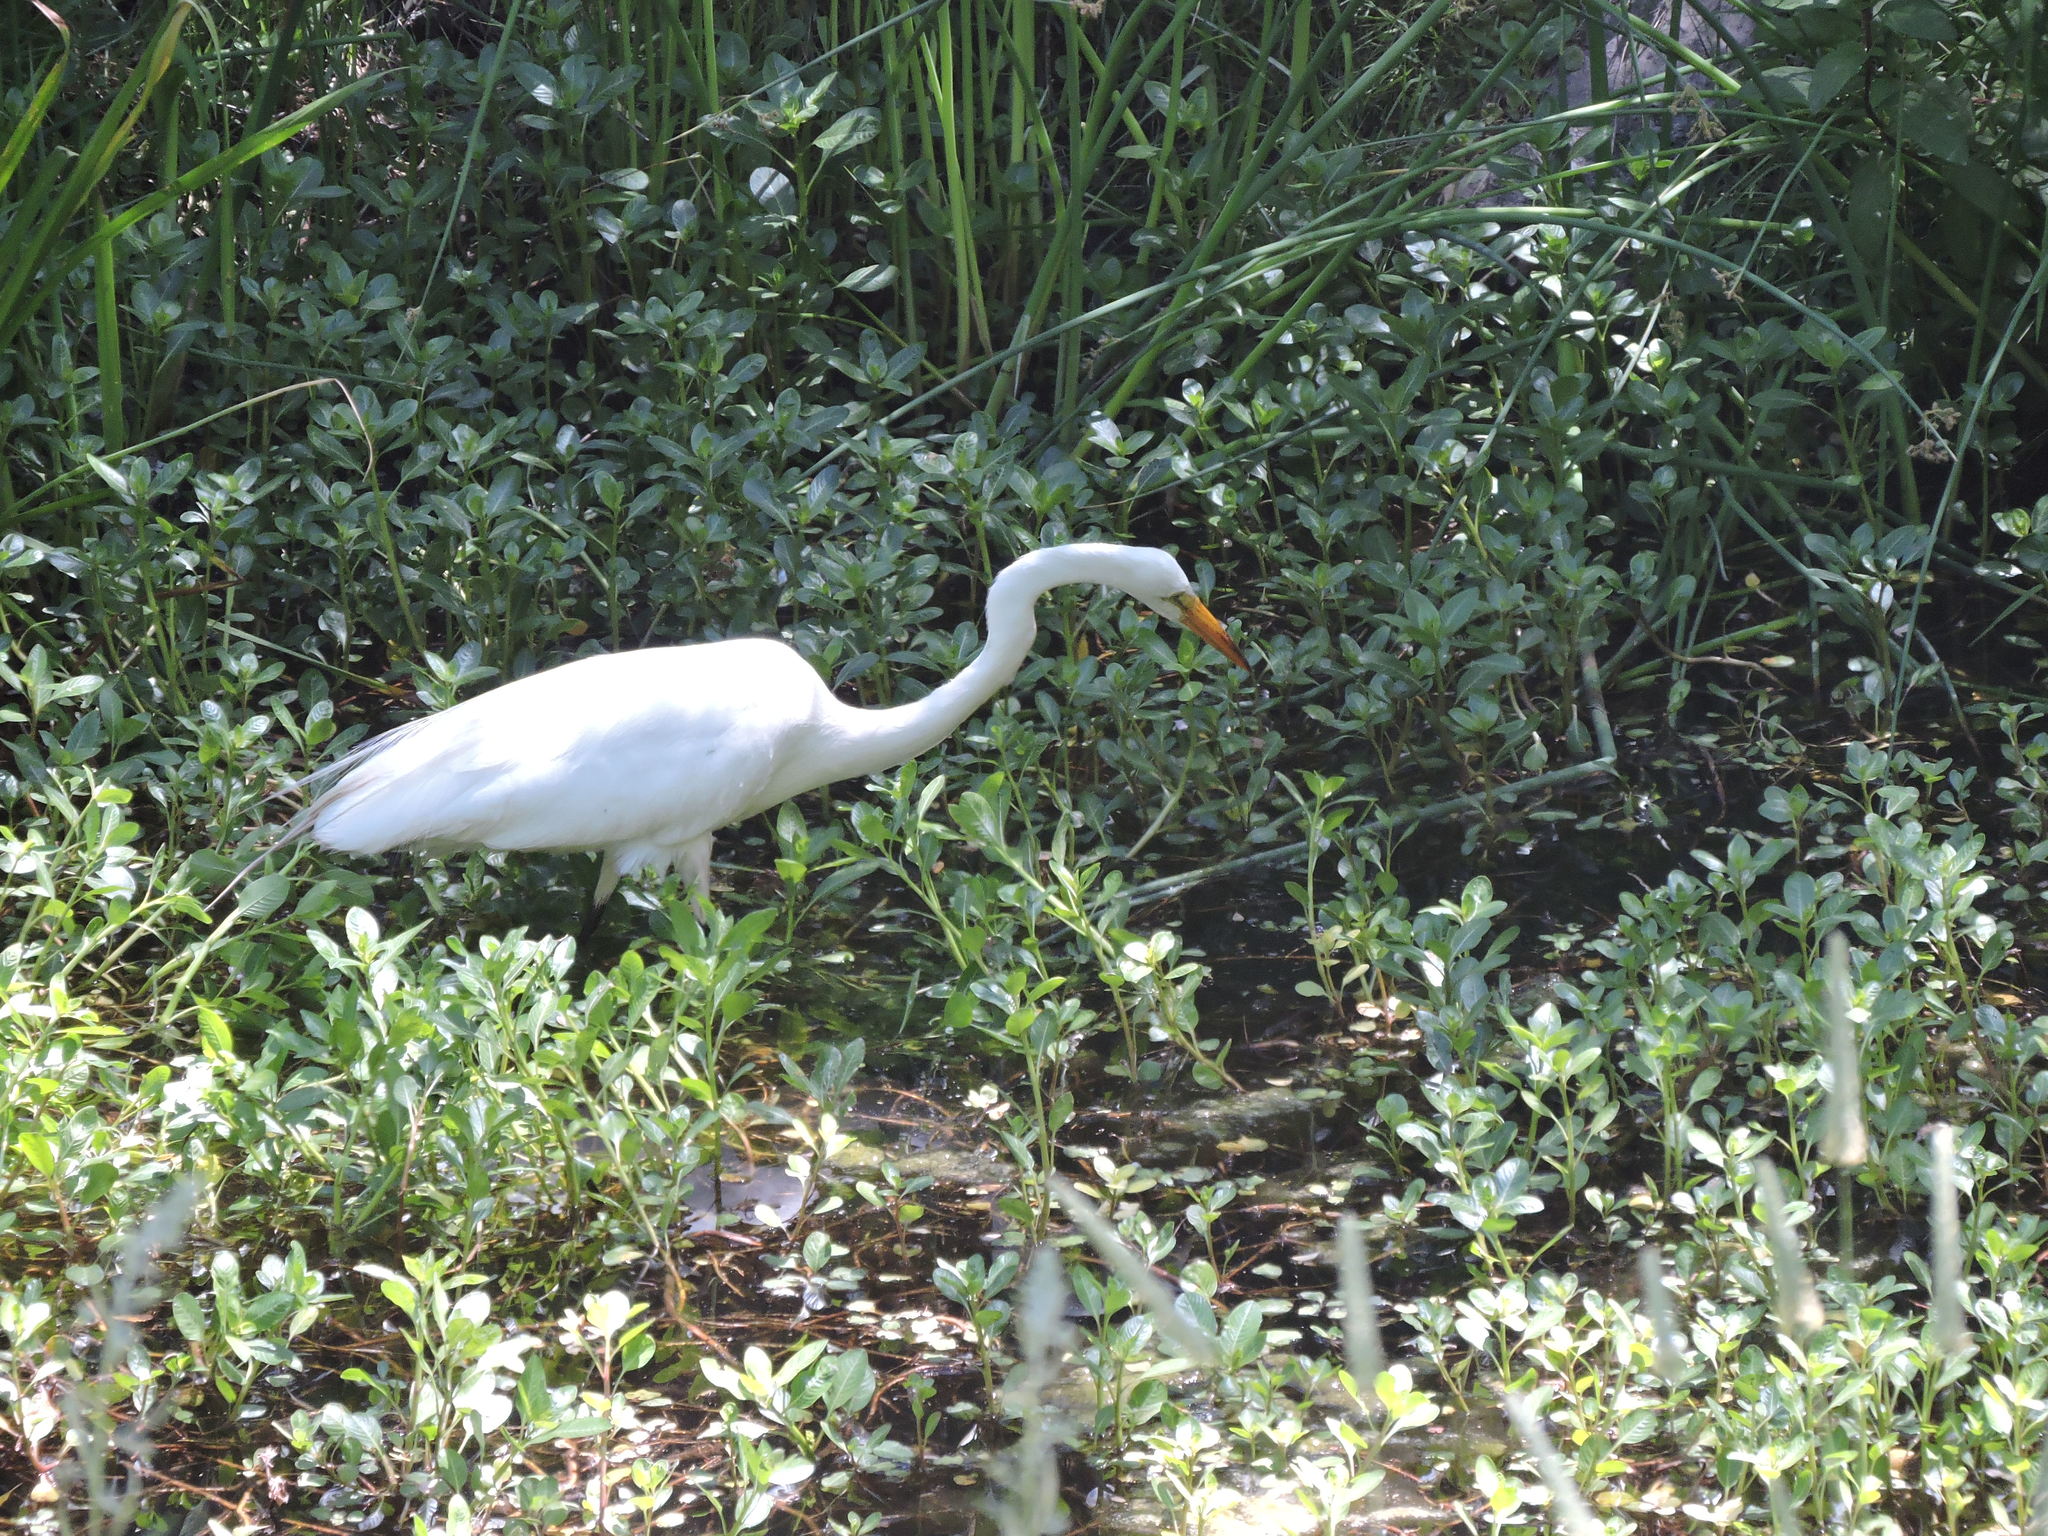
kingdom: Animalia
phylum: Chordata
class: Aves
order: Pelecaniformes
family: Ardeidae
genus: Ardea
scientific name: Ardea alba
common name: Great egret
